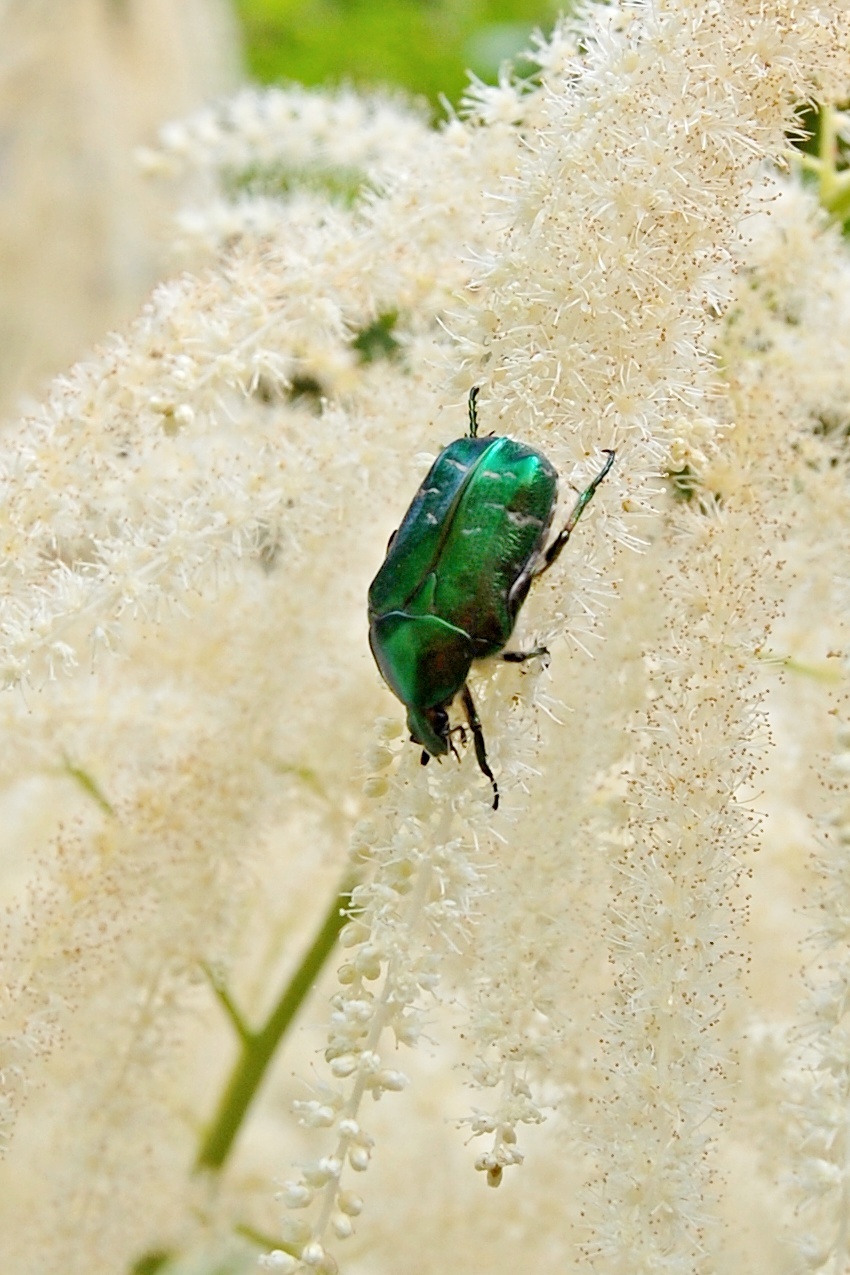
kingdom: Animalia
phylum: Arthropoda
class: Insecta
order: Coleoptera
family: Scarabaeidae
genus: Cetonia
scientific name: Cetonia aurata
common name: Rose chafer
